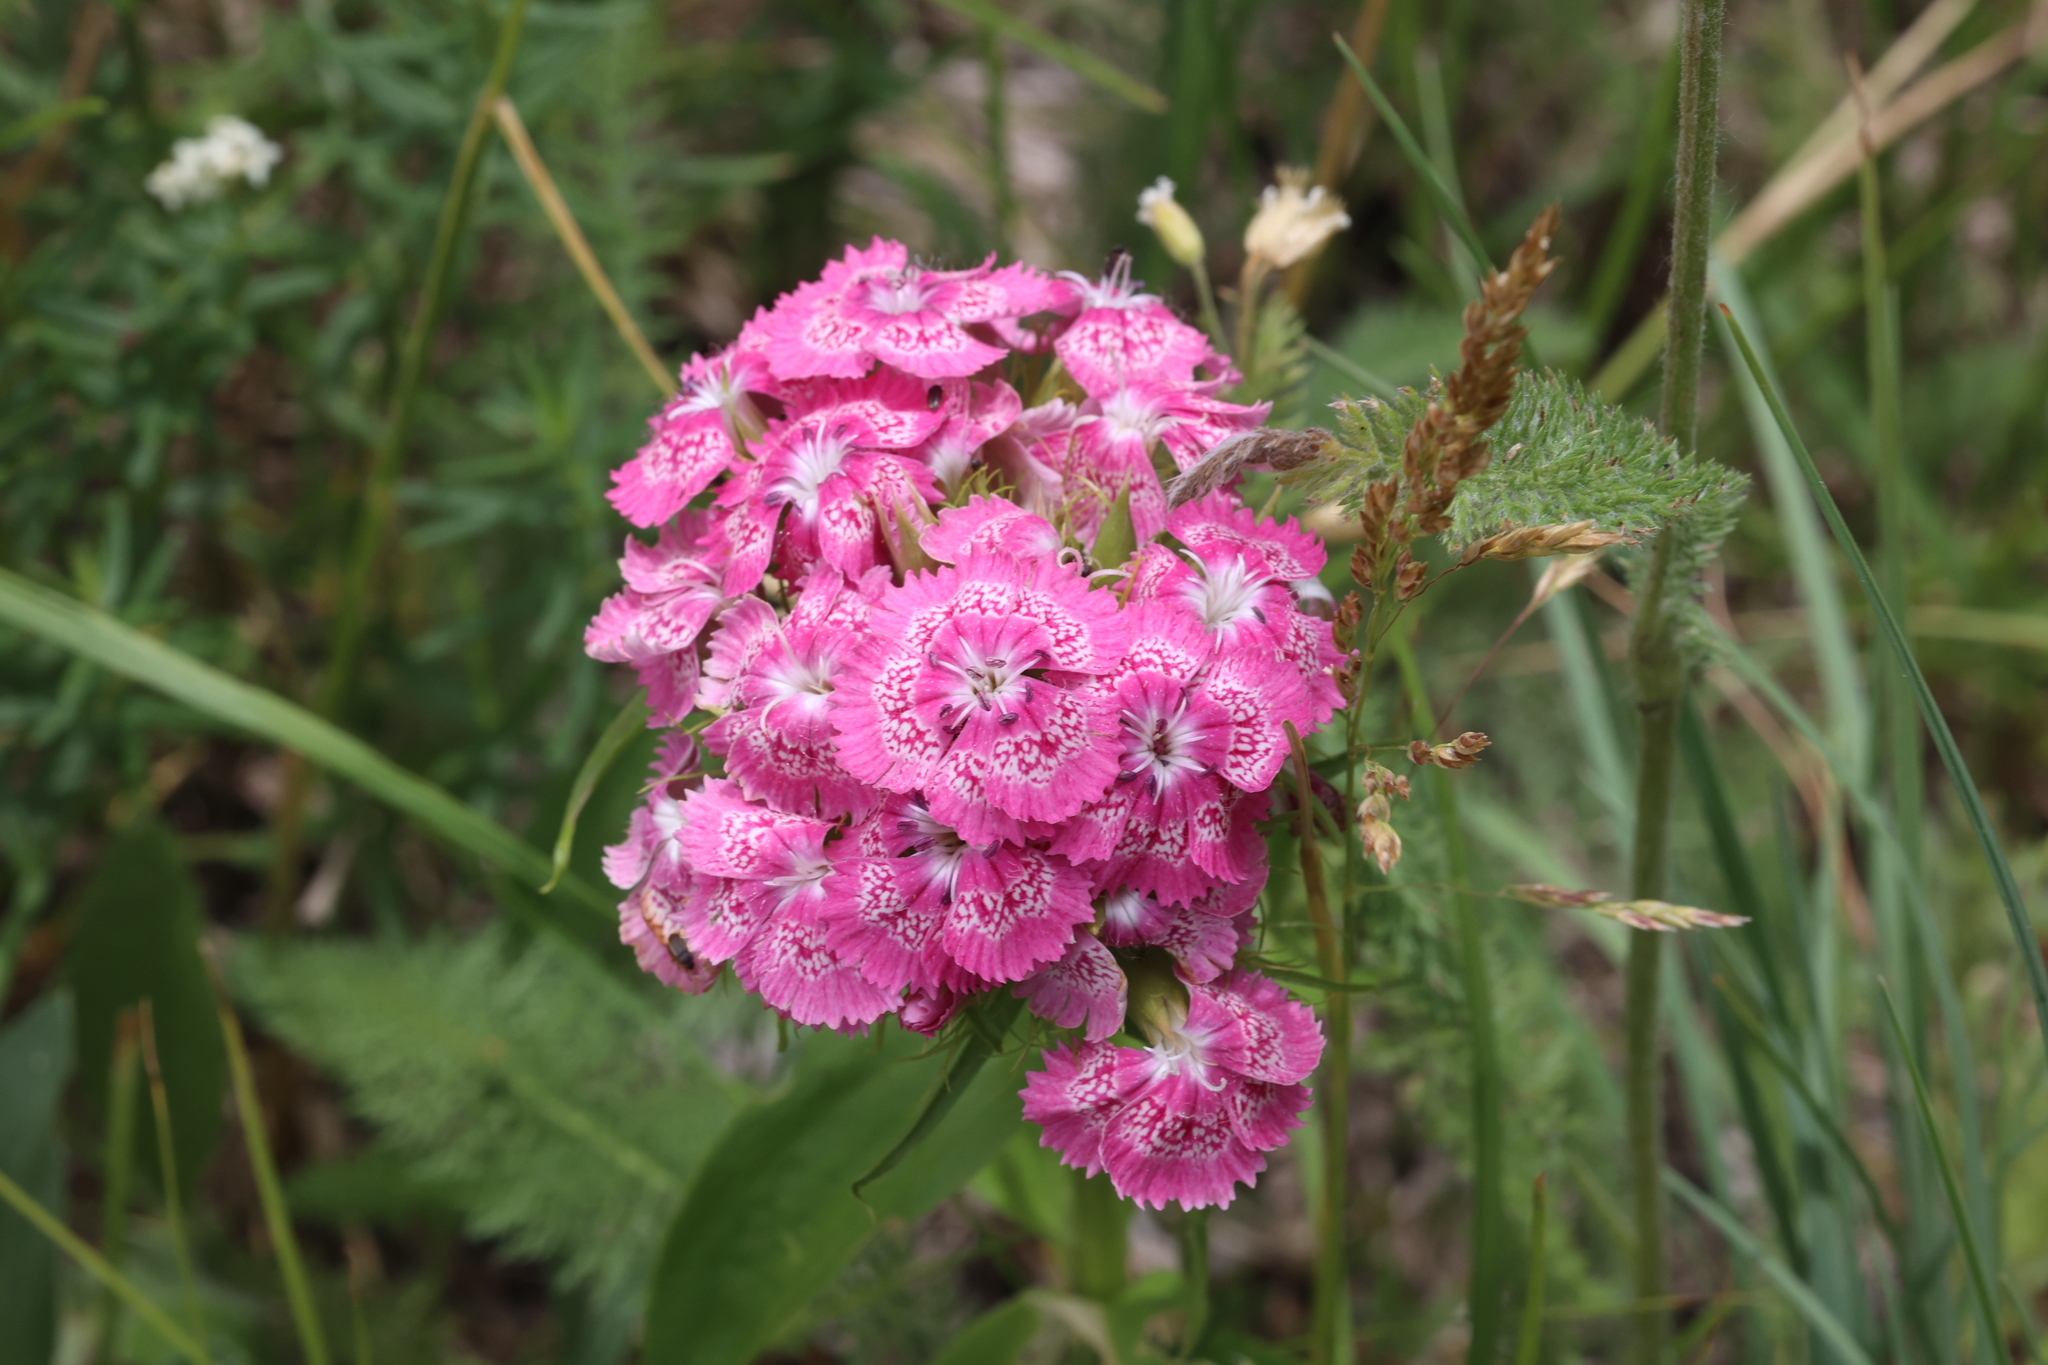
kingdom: Plantae
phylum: Tracheophyta
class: Magnoliopsida
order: Caryophyllales
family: Caryophyllaceae
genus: Dianthus
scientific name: Dianthus barbatus
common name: Sweet-william
